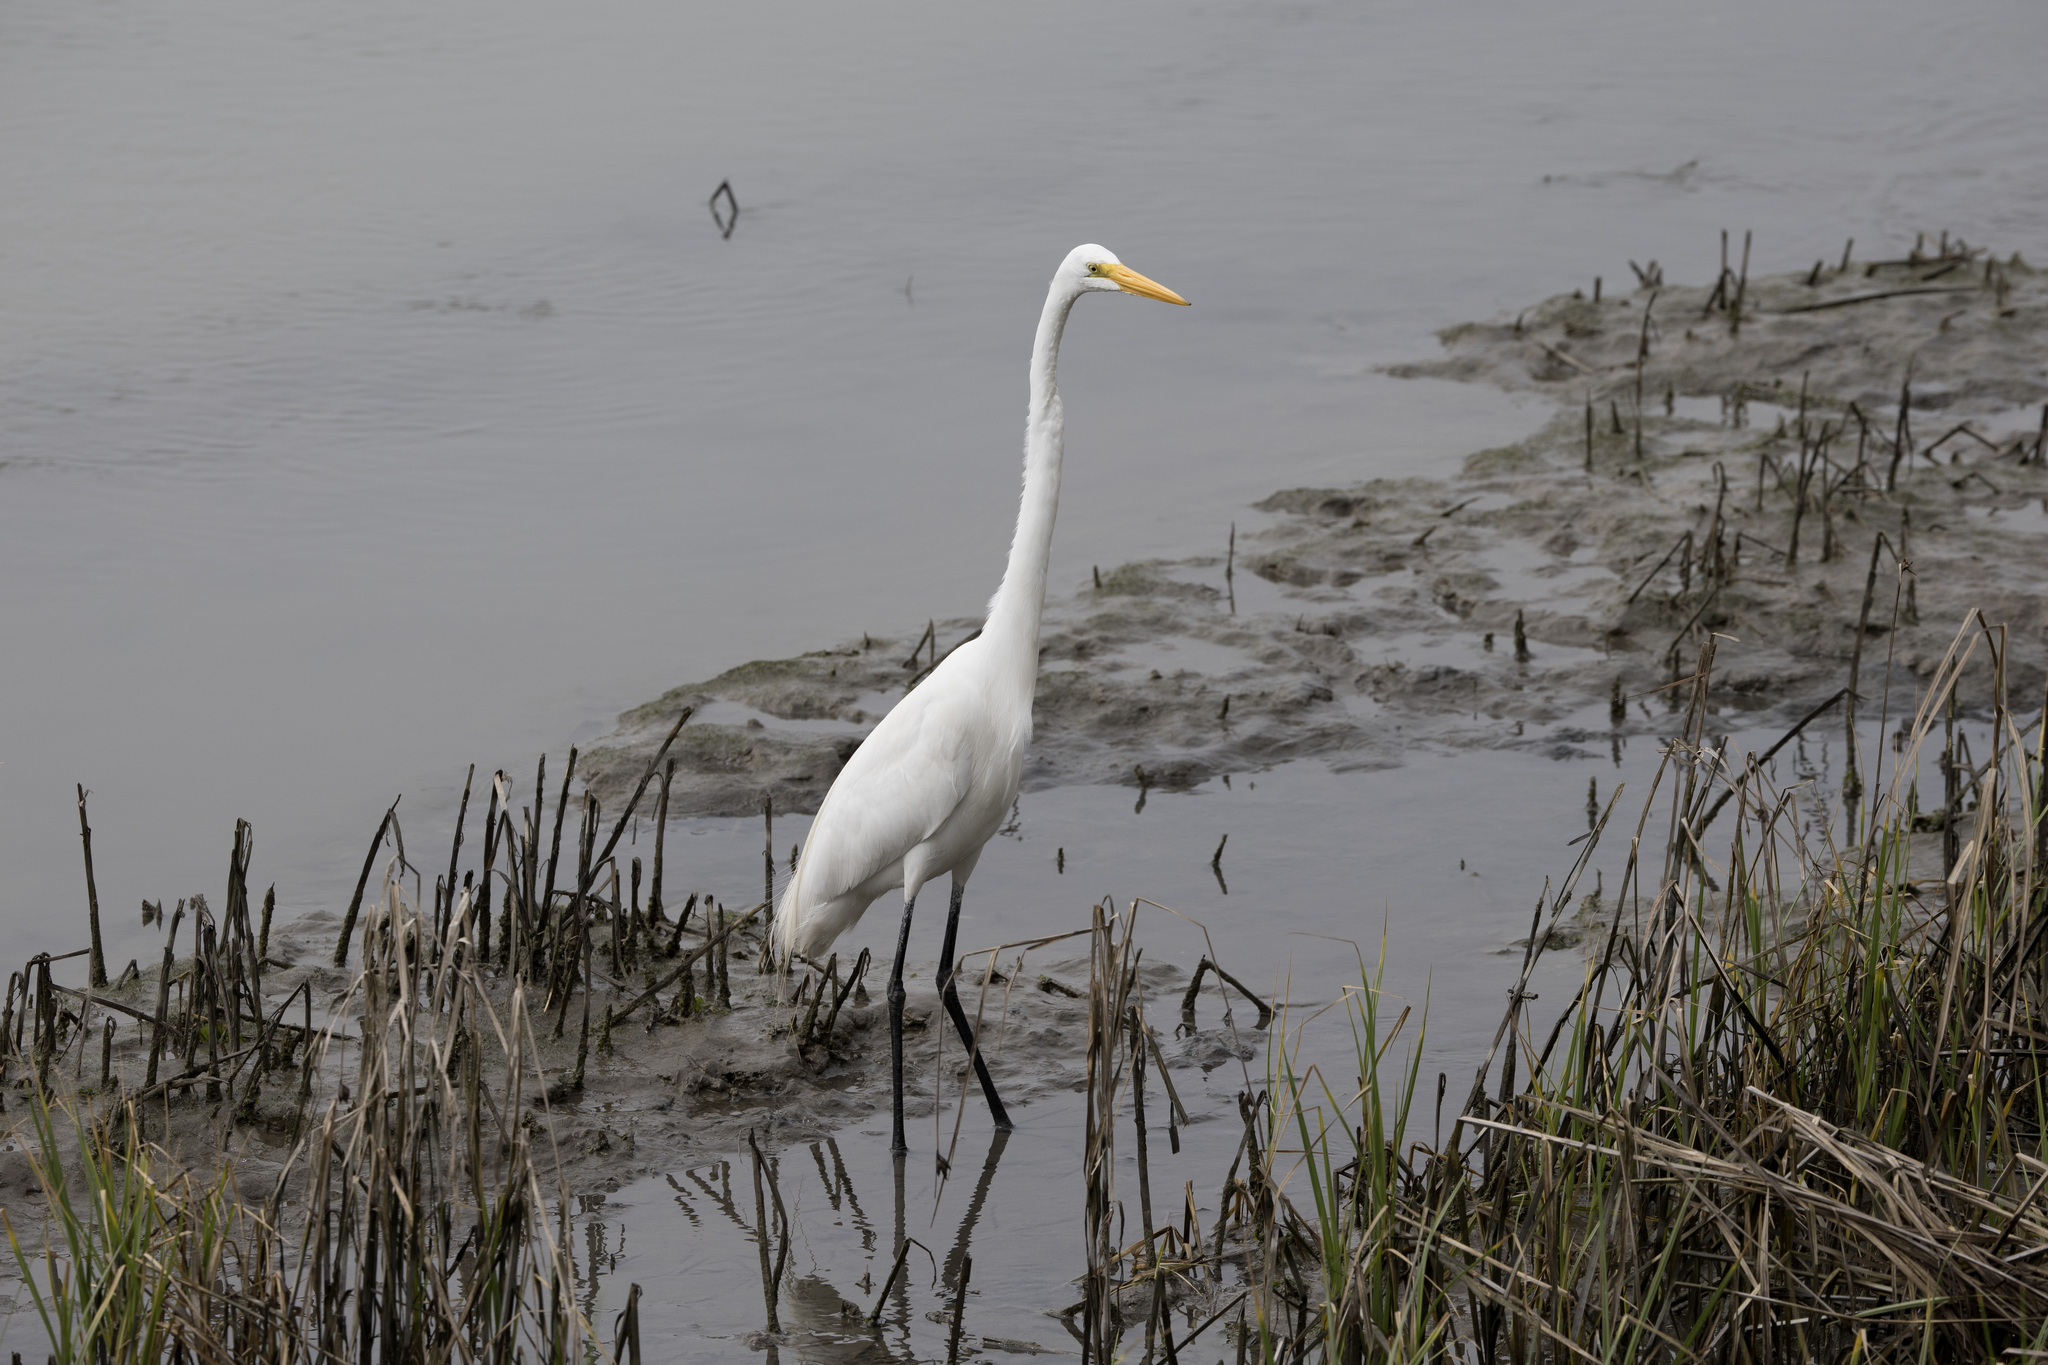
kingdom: Animalia
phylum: Chordata
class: Aves
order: Pelecaniformes
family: Ardeidae
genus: Ardea
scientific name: Ardea alba
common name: Great egret
